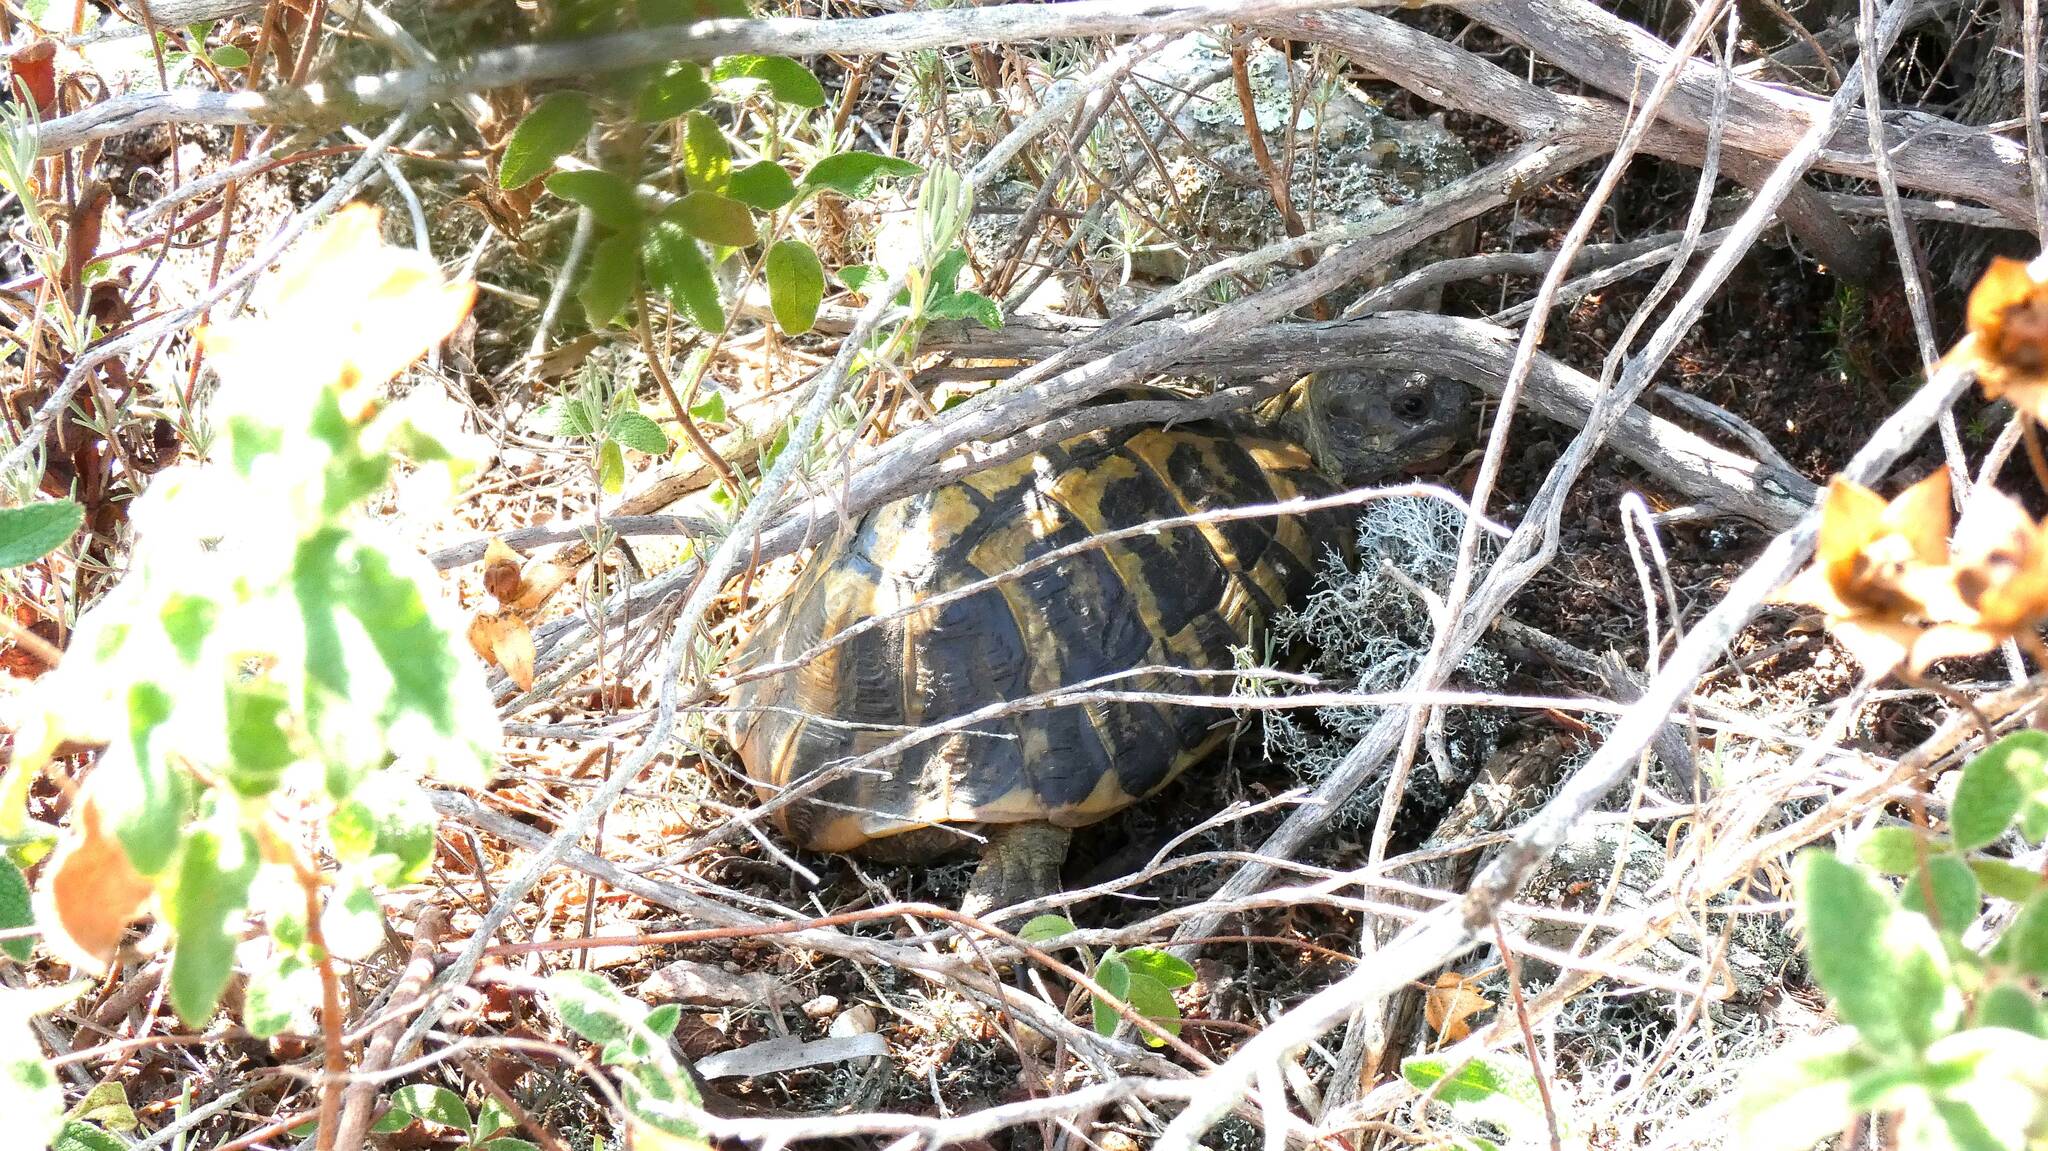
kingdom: Animalia
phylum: Chordata
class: Testudines
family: Testudinidae
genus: Testudo
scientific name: Testudo hermanni
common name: Hermann's tortoise
